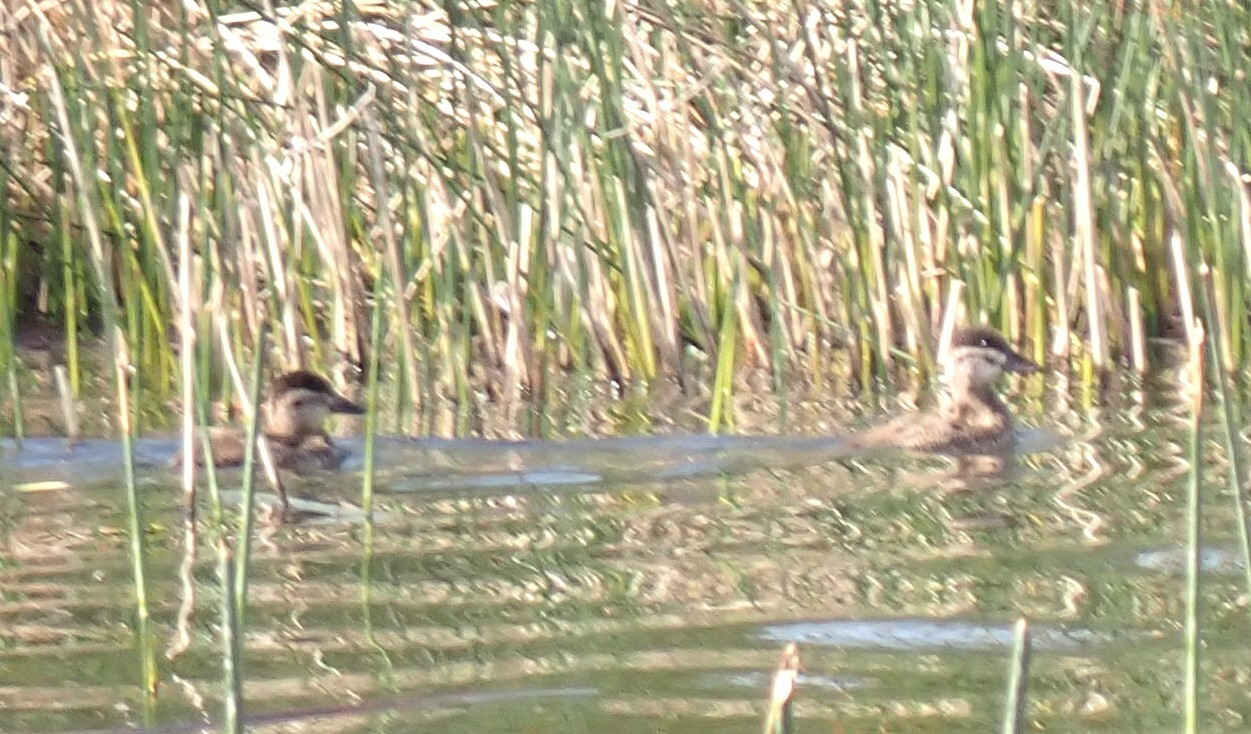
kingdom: Animalia
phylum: Chordata
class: Aves
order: Anseriformes
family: Anatidae
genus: Oxyura
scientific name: Oxyura jamaicensis
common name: Ruddy duck
